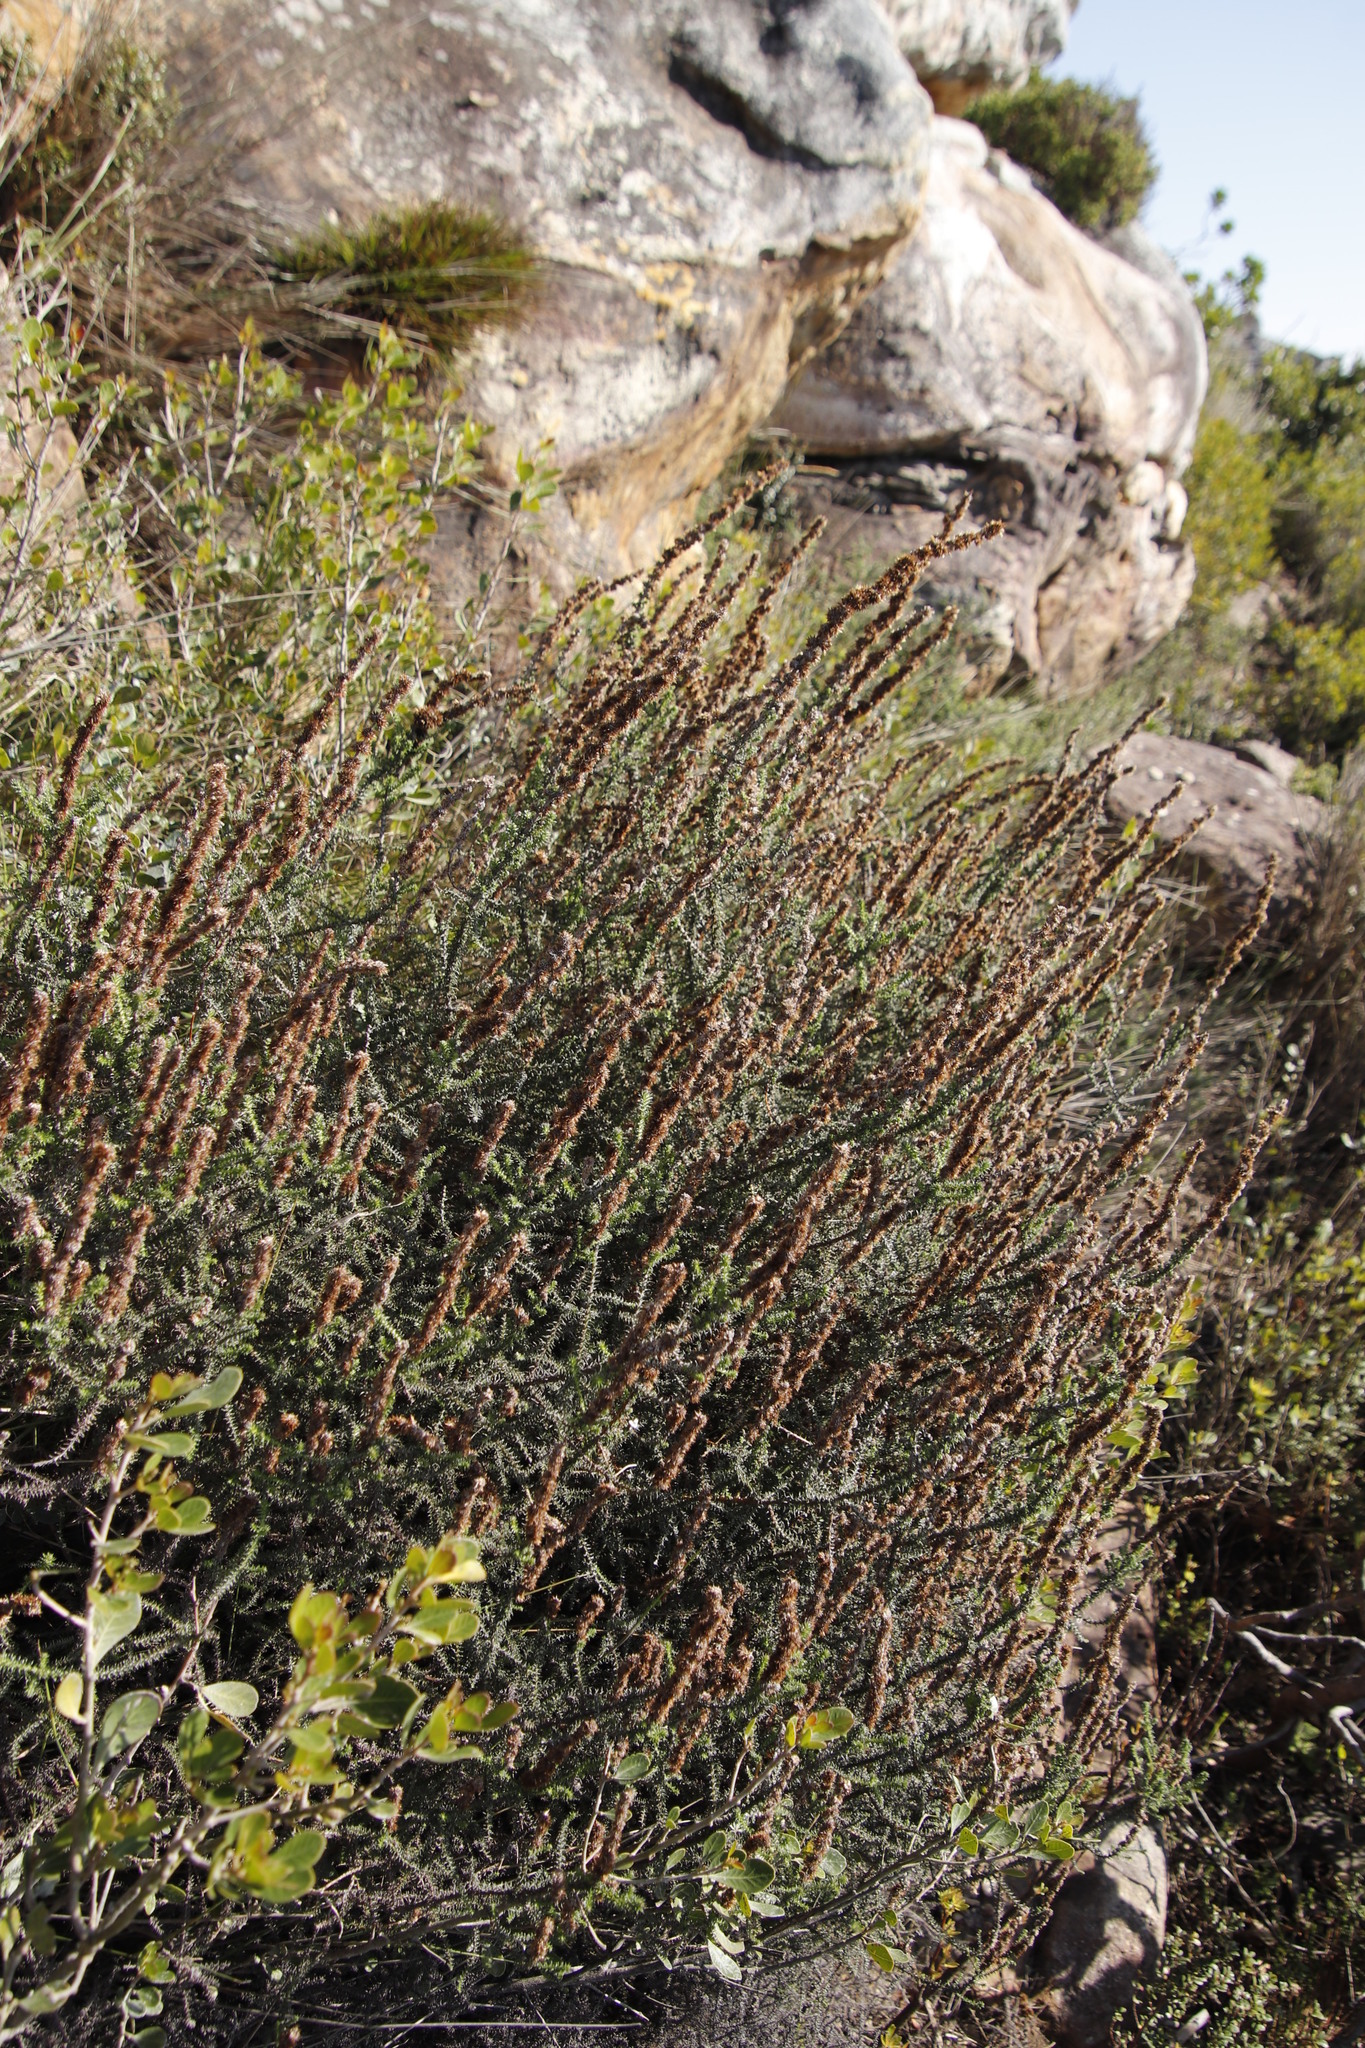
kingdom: Plantae
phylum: Tracheophyta
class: Magnoliopsida
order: Asterales
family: Asteraceae
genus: Seriphium
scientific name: Seriphium cinereum
